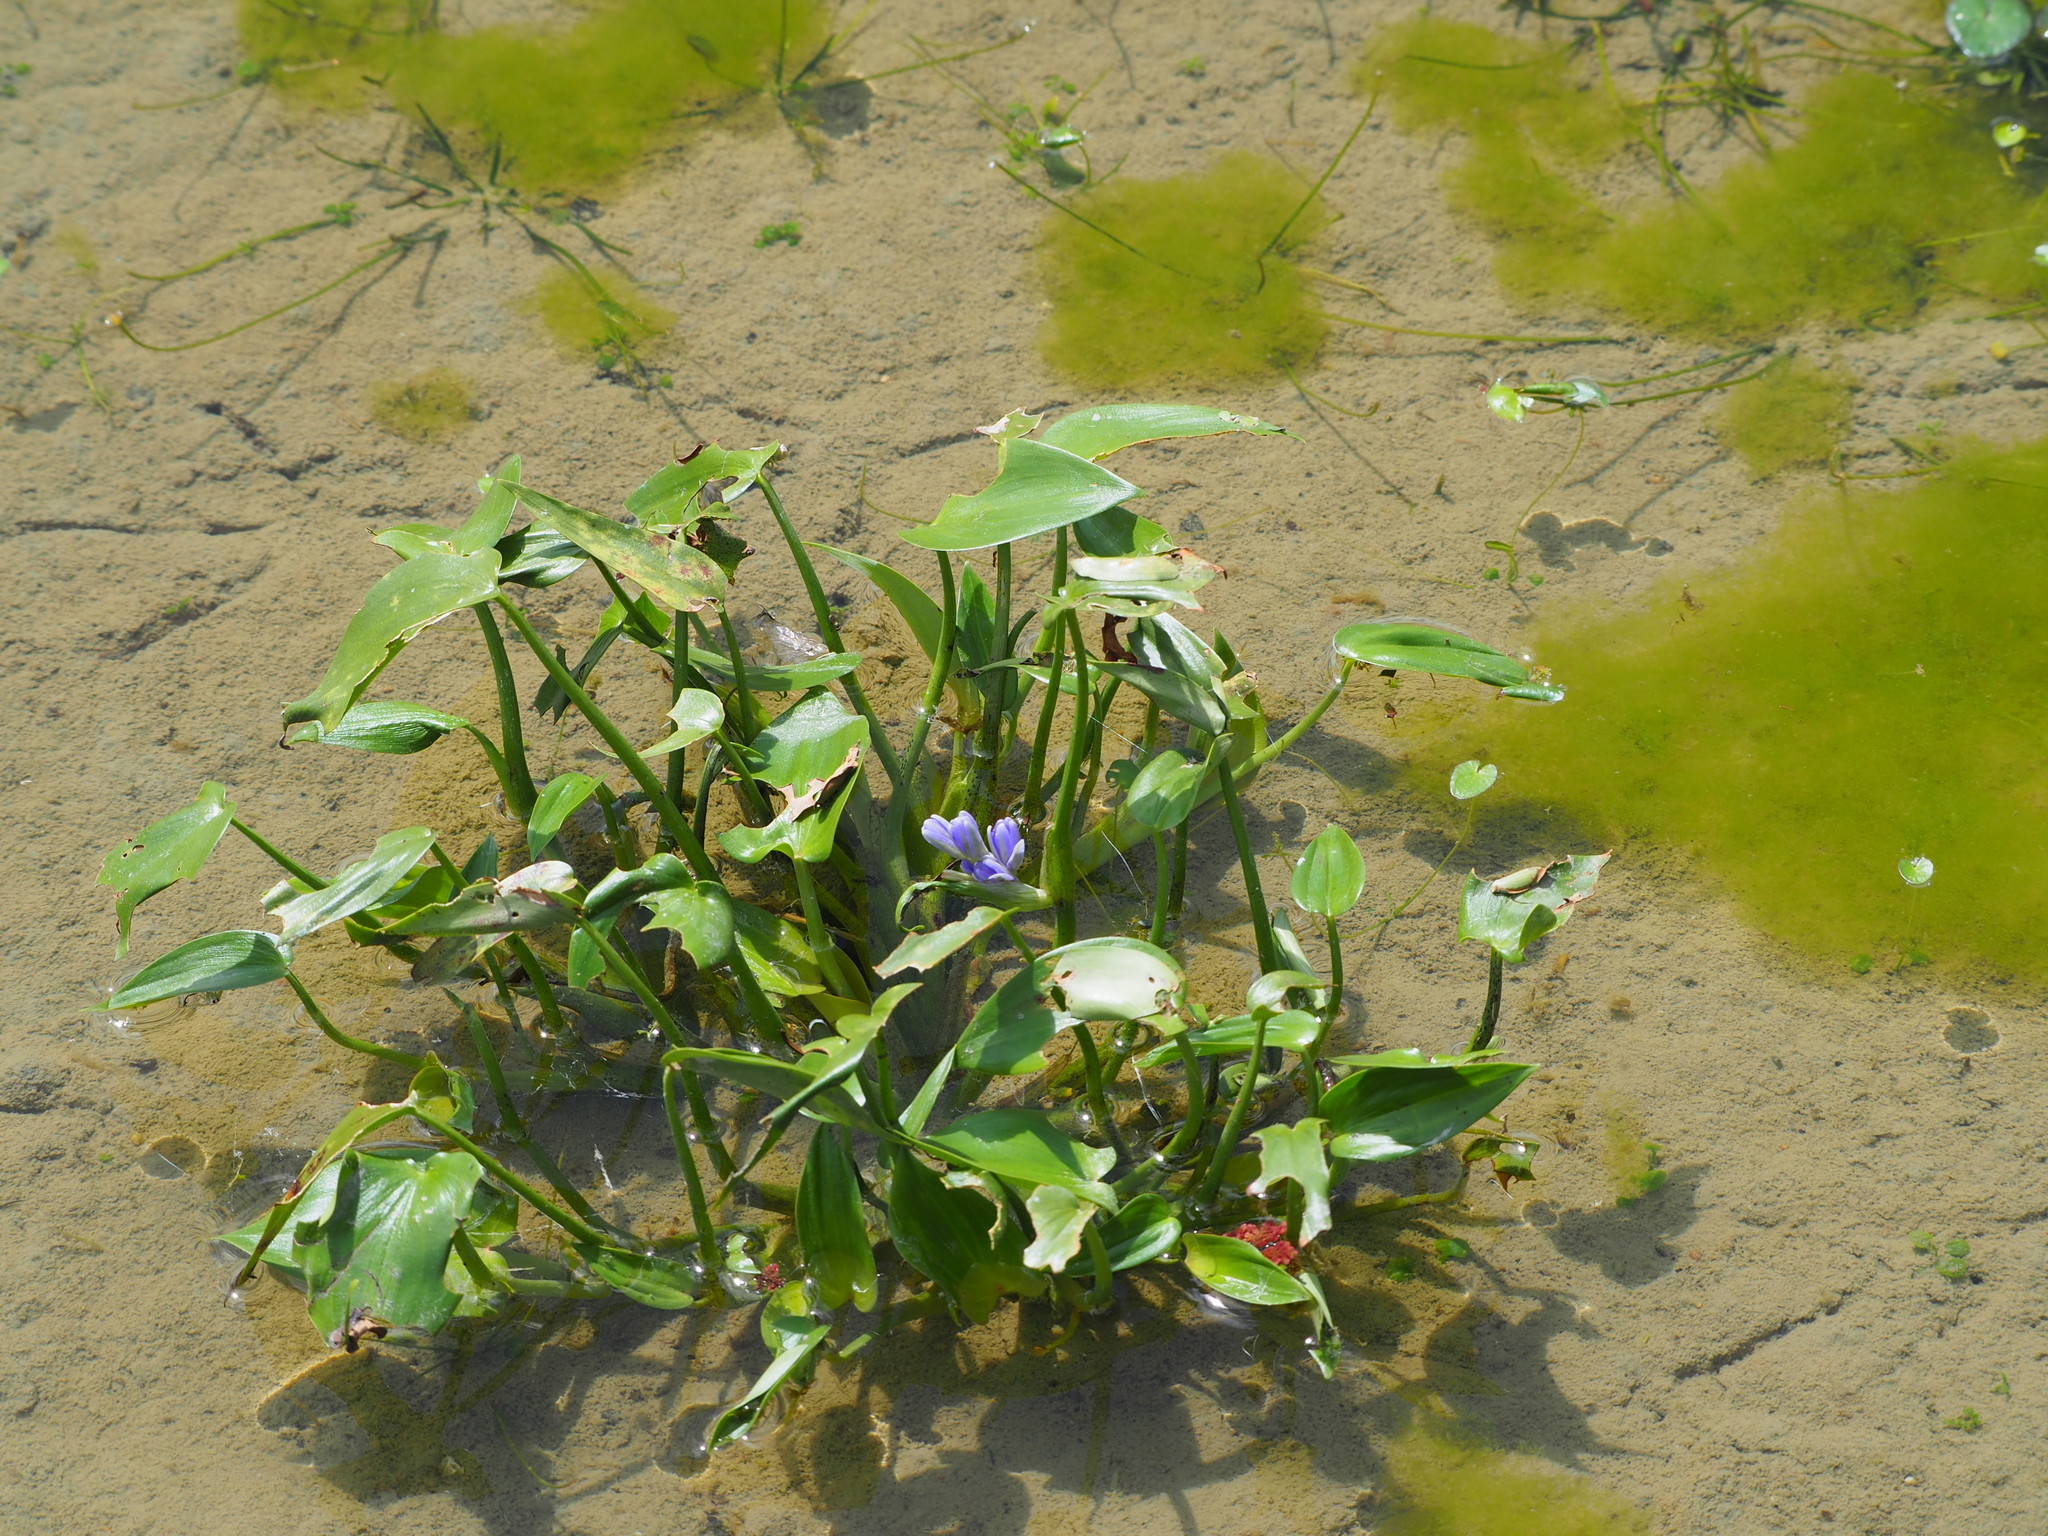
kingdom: Plantae
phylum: Tracheophyta
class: Liliopsida
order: Commelinales
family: Pontederiaceae
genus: Pontederia
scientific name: Pontederia vaginalis
